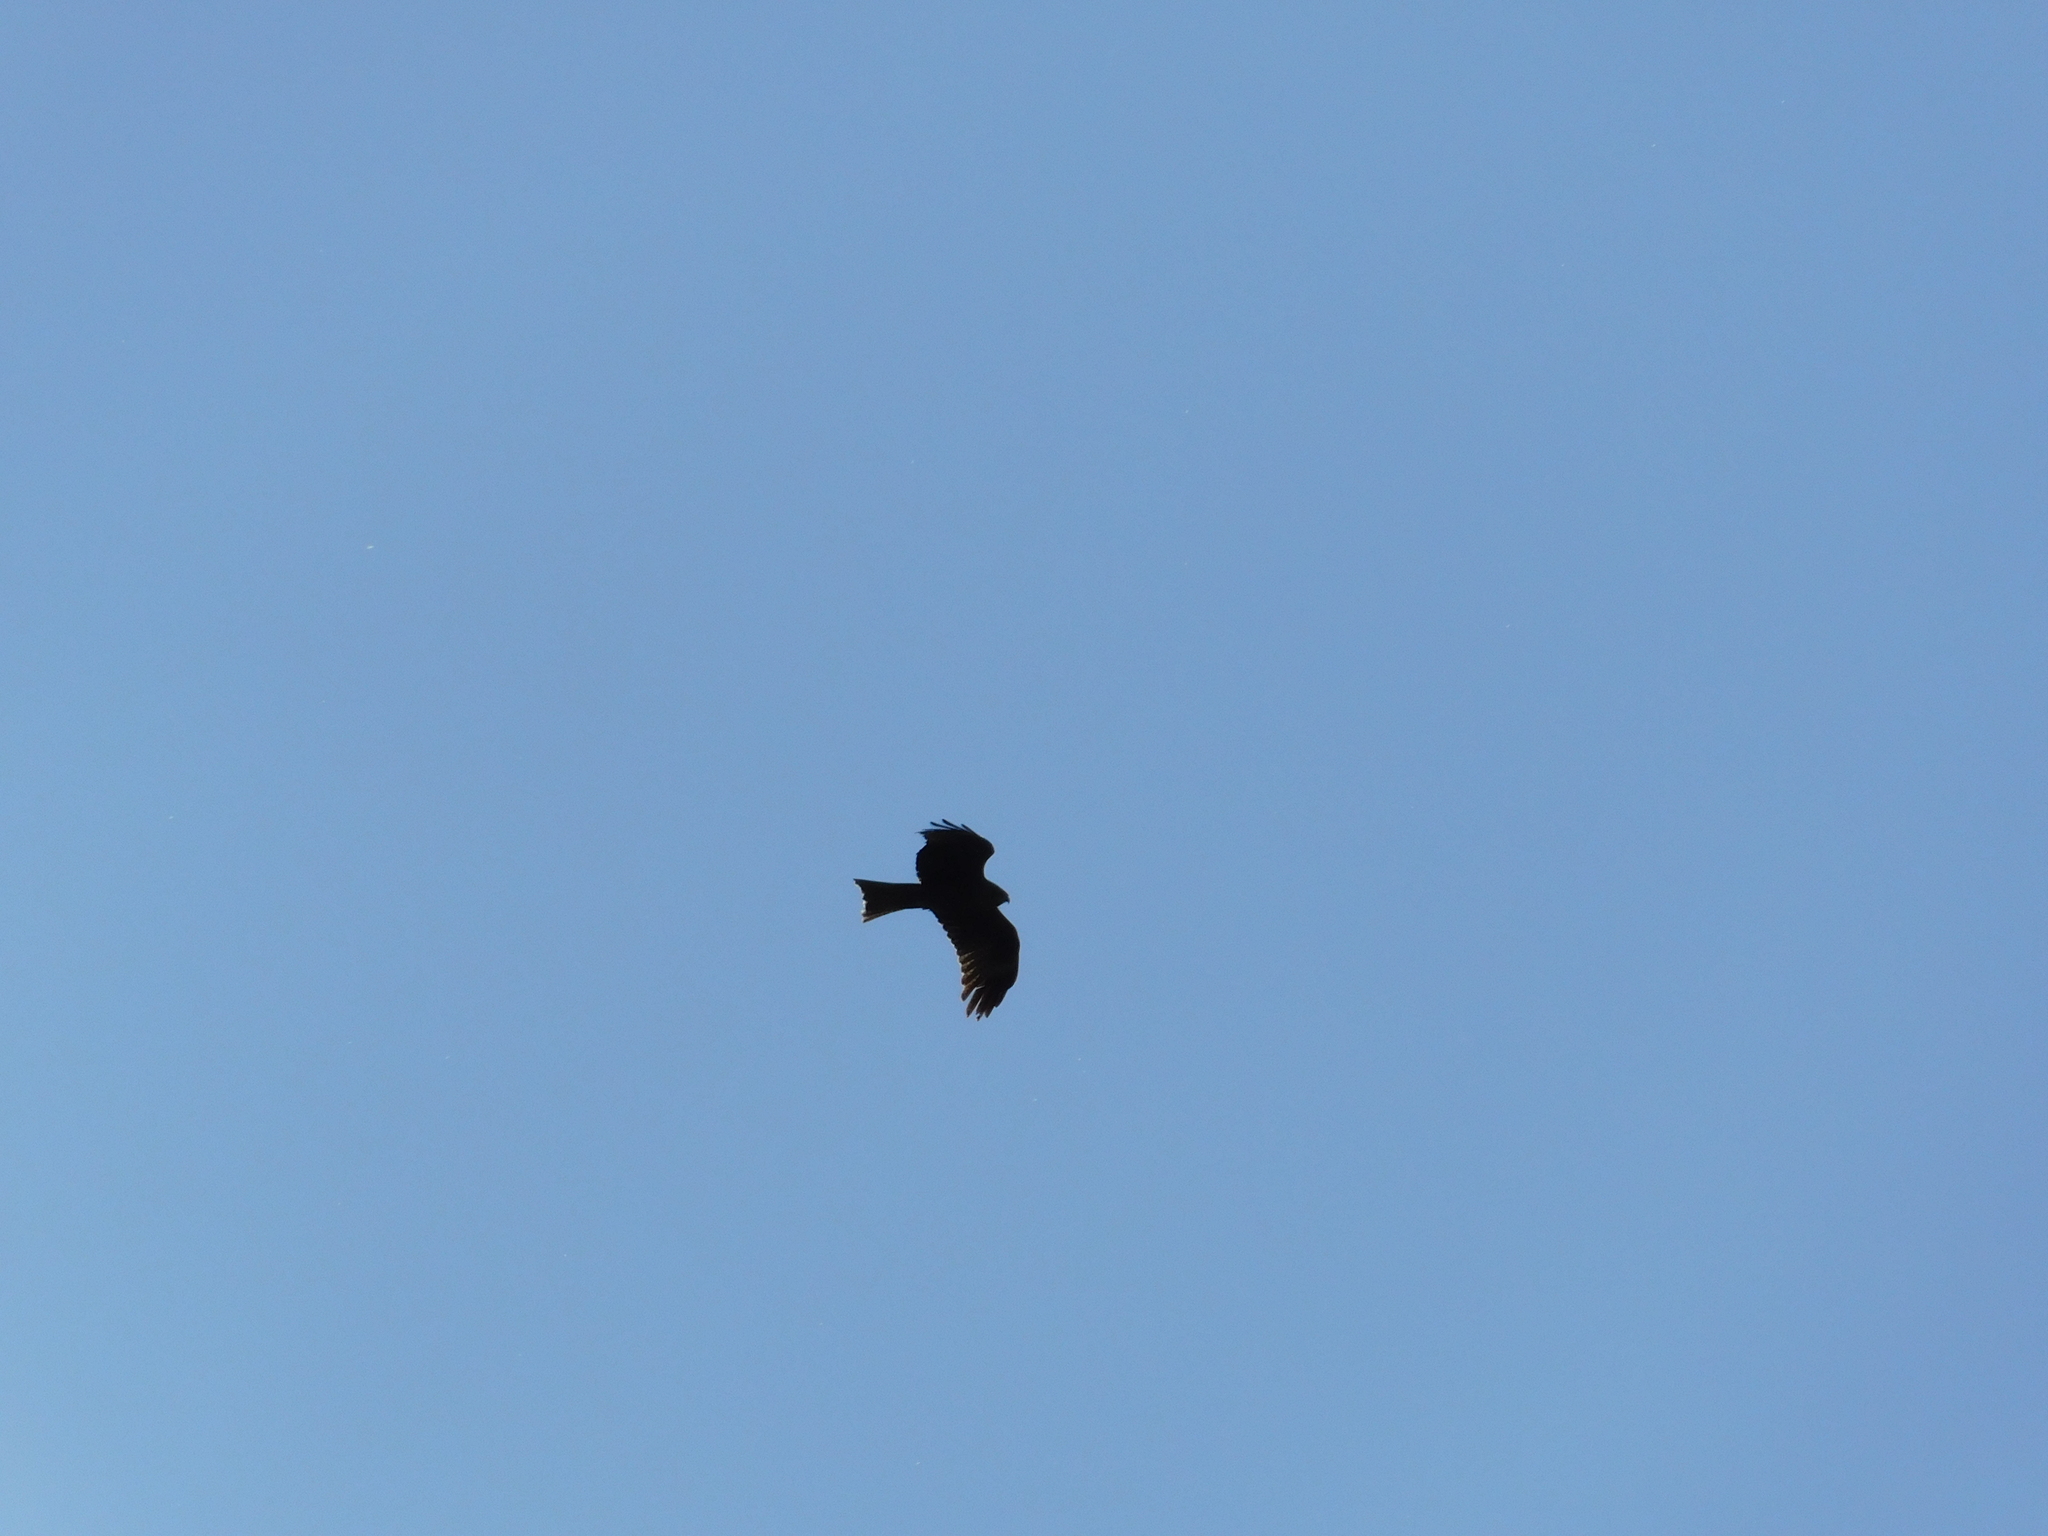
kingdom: Animalia
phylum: Chordata
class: Aves
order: Accipitriformes
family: Accipitridae
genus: Milvus
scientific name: Milvus migrans
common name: Black kite
